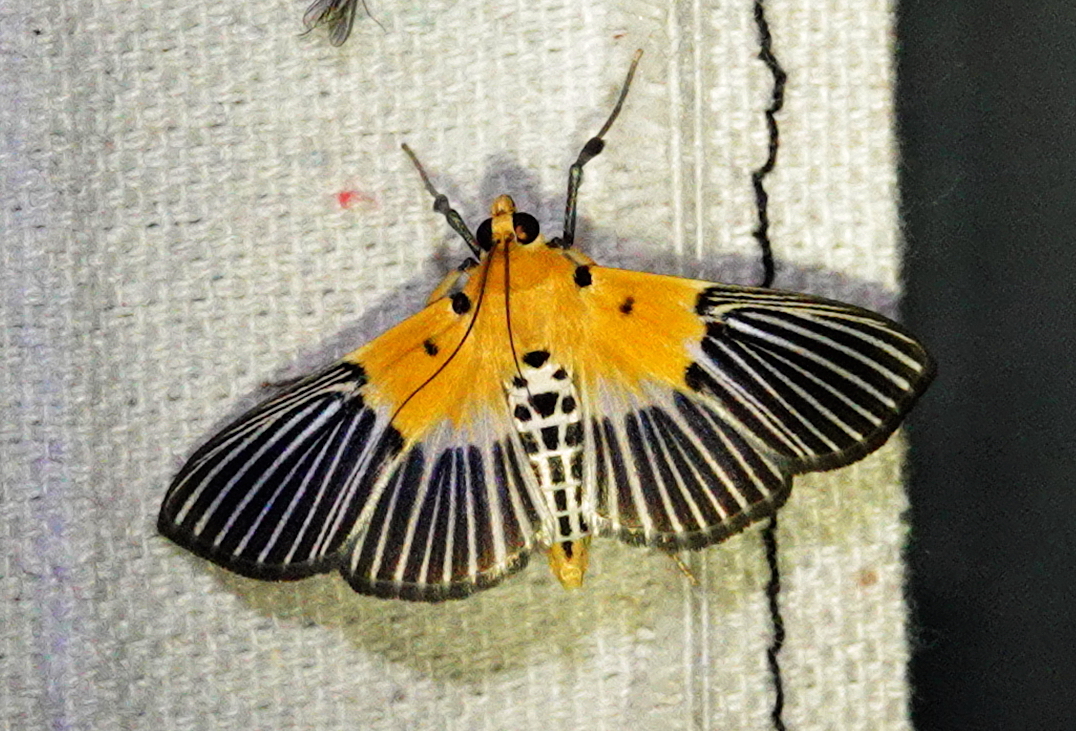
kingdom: Animalia
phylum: Arthropoda
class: Insecta
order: Lepidoptera
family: Crambidae
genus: Nevrina
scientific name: Nevrina procopia
